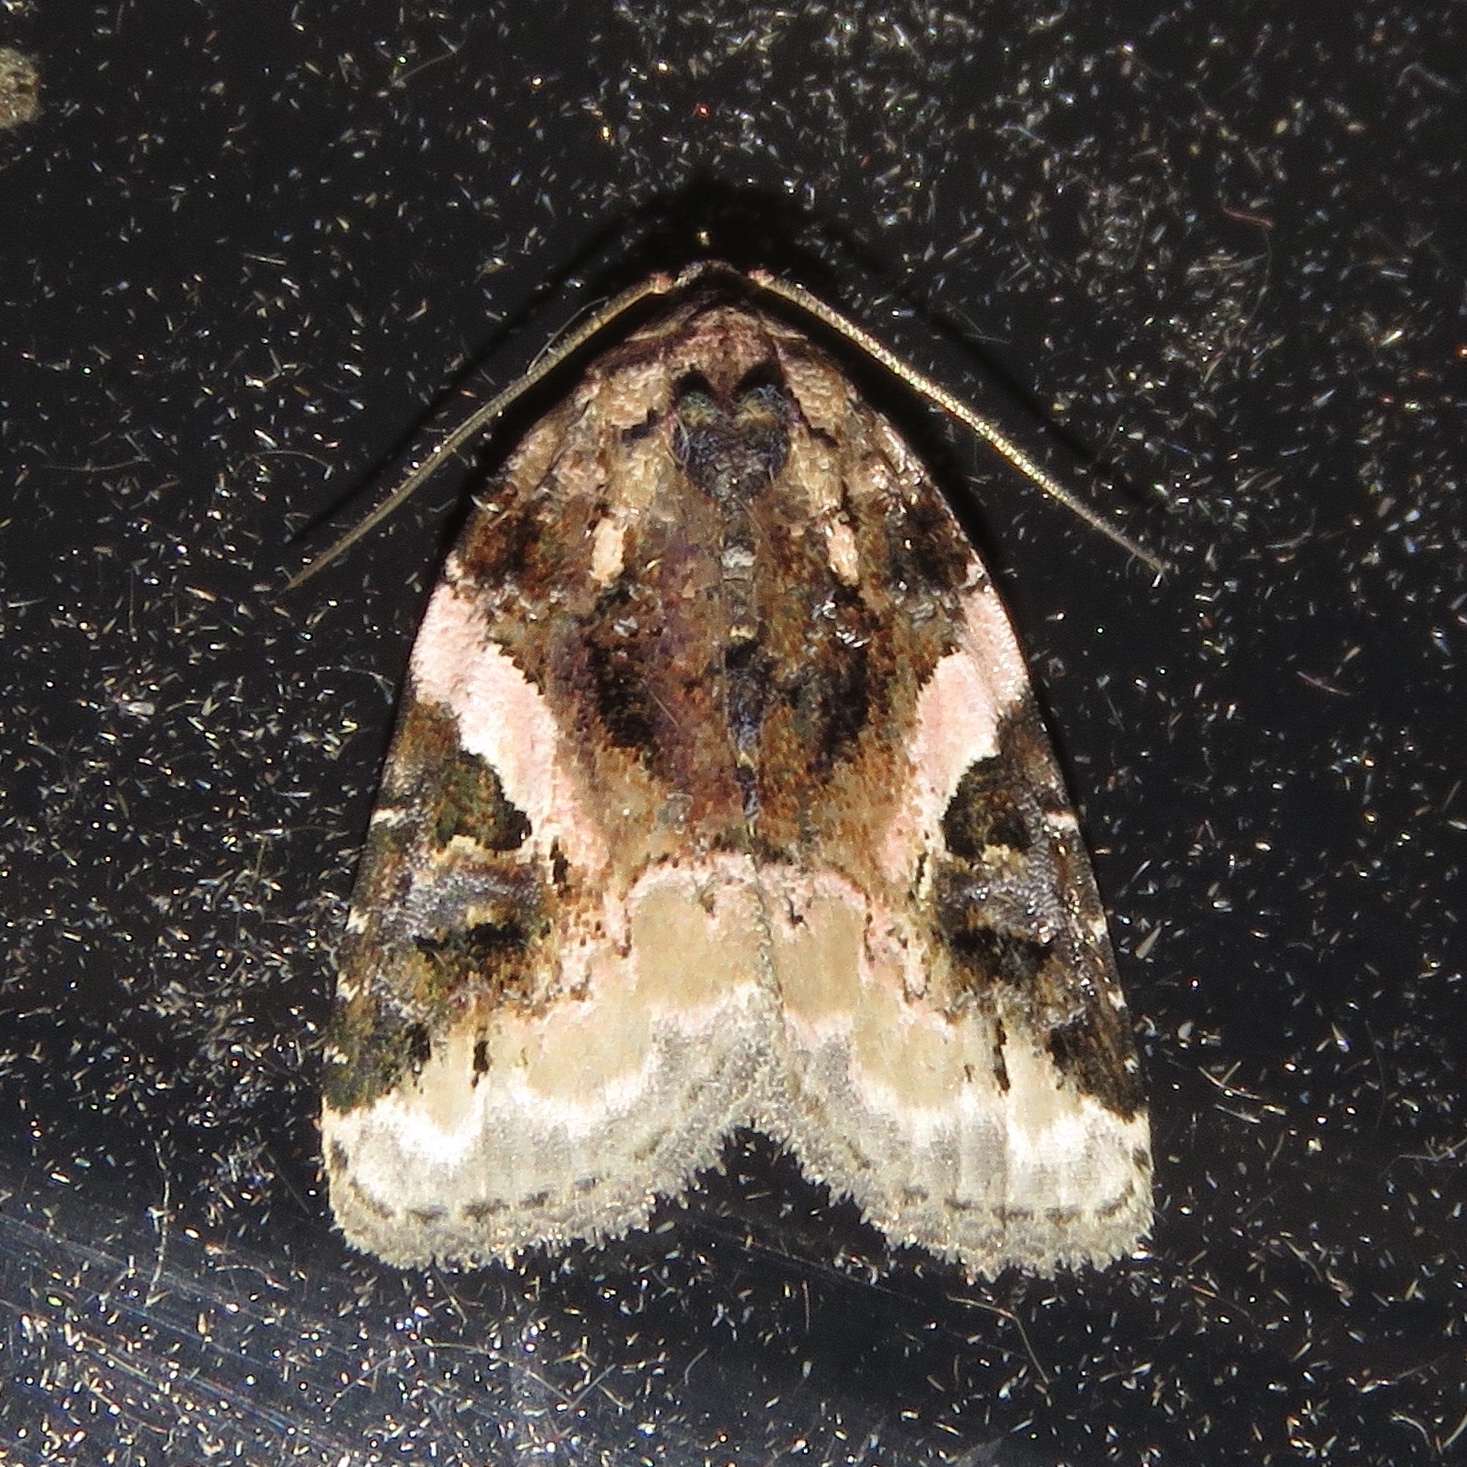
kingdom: Animalia
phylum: Arthropoda
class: Insecta
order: Lepidoptera
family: Noctuidae
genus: Pseudeustrotia
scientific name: Pseudeustrotia carneola
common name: Pink-barred lithacodia moth
